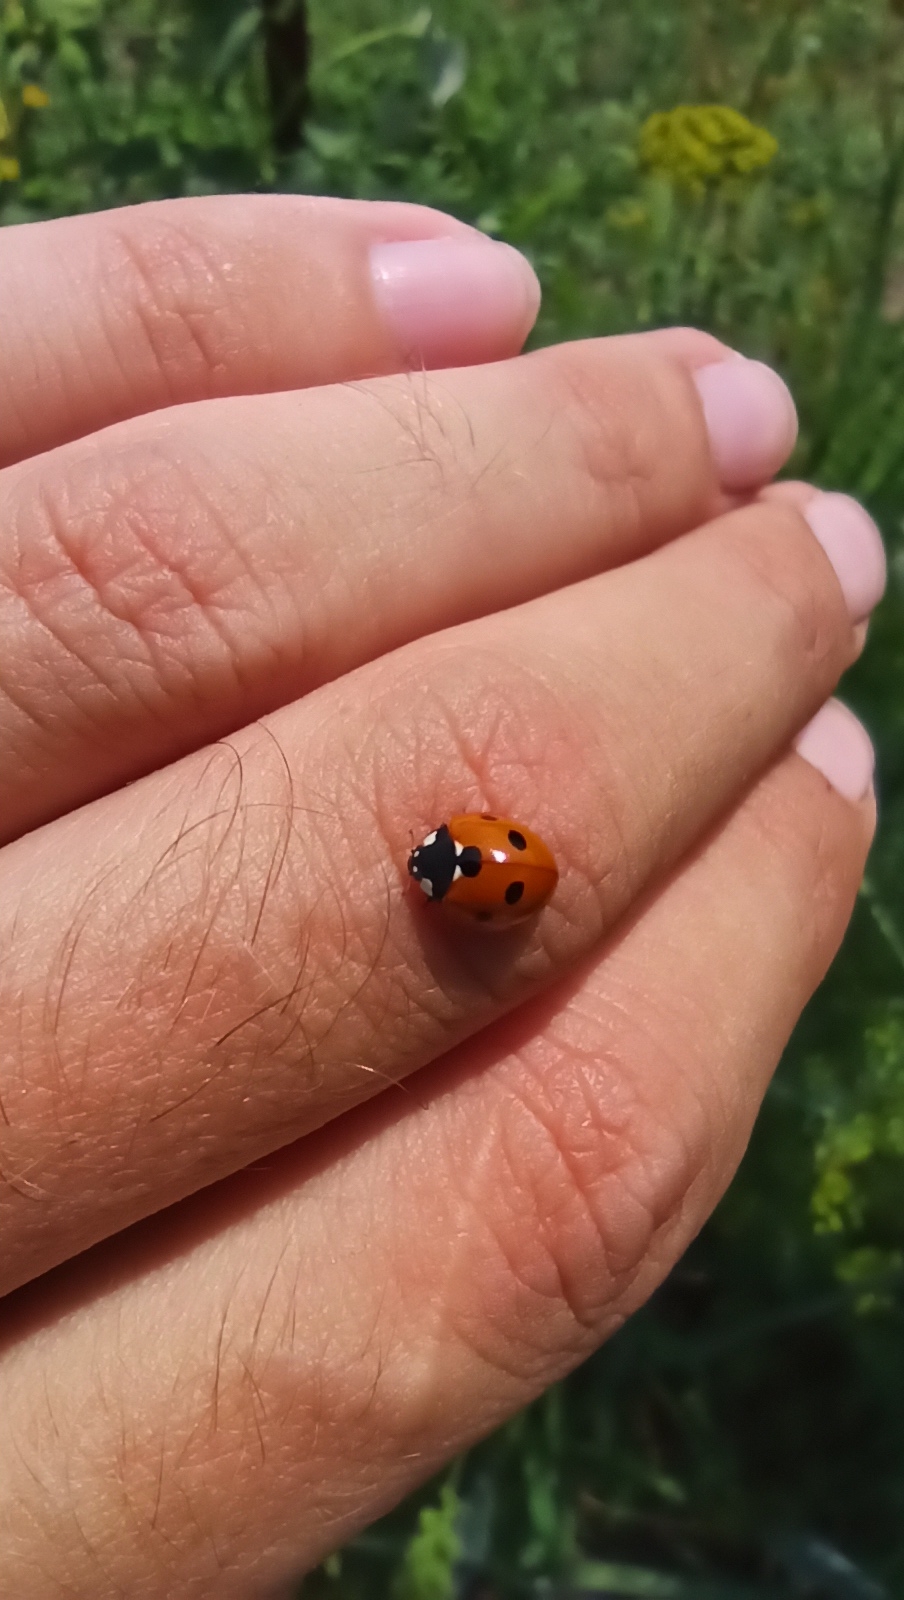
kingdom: Animalia
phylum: Arthropoda
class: Insecta
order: Coleoptera
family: Coccinellidae
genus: Coccinella
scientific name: Coccinella septempunctata
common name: Sevenspotted lady beetle
